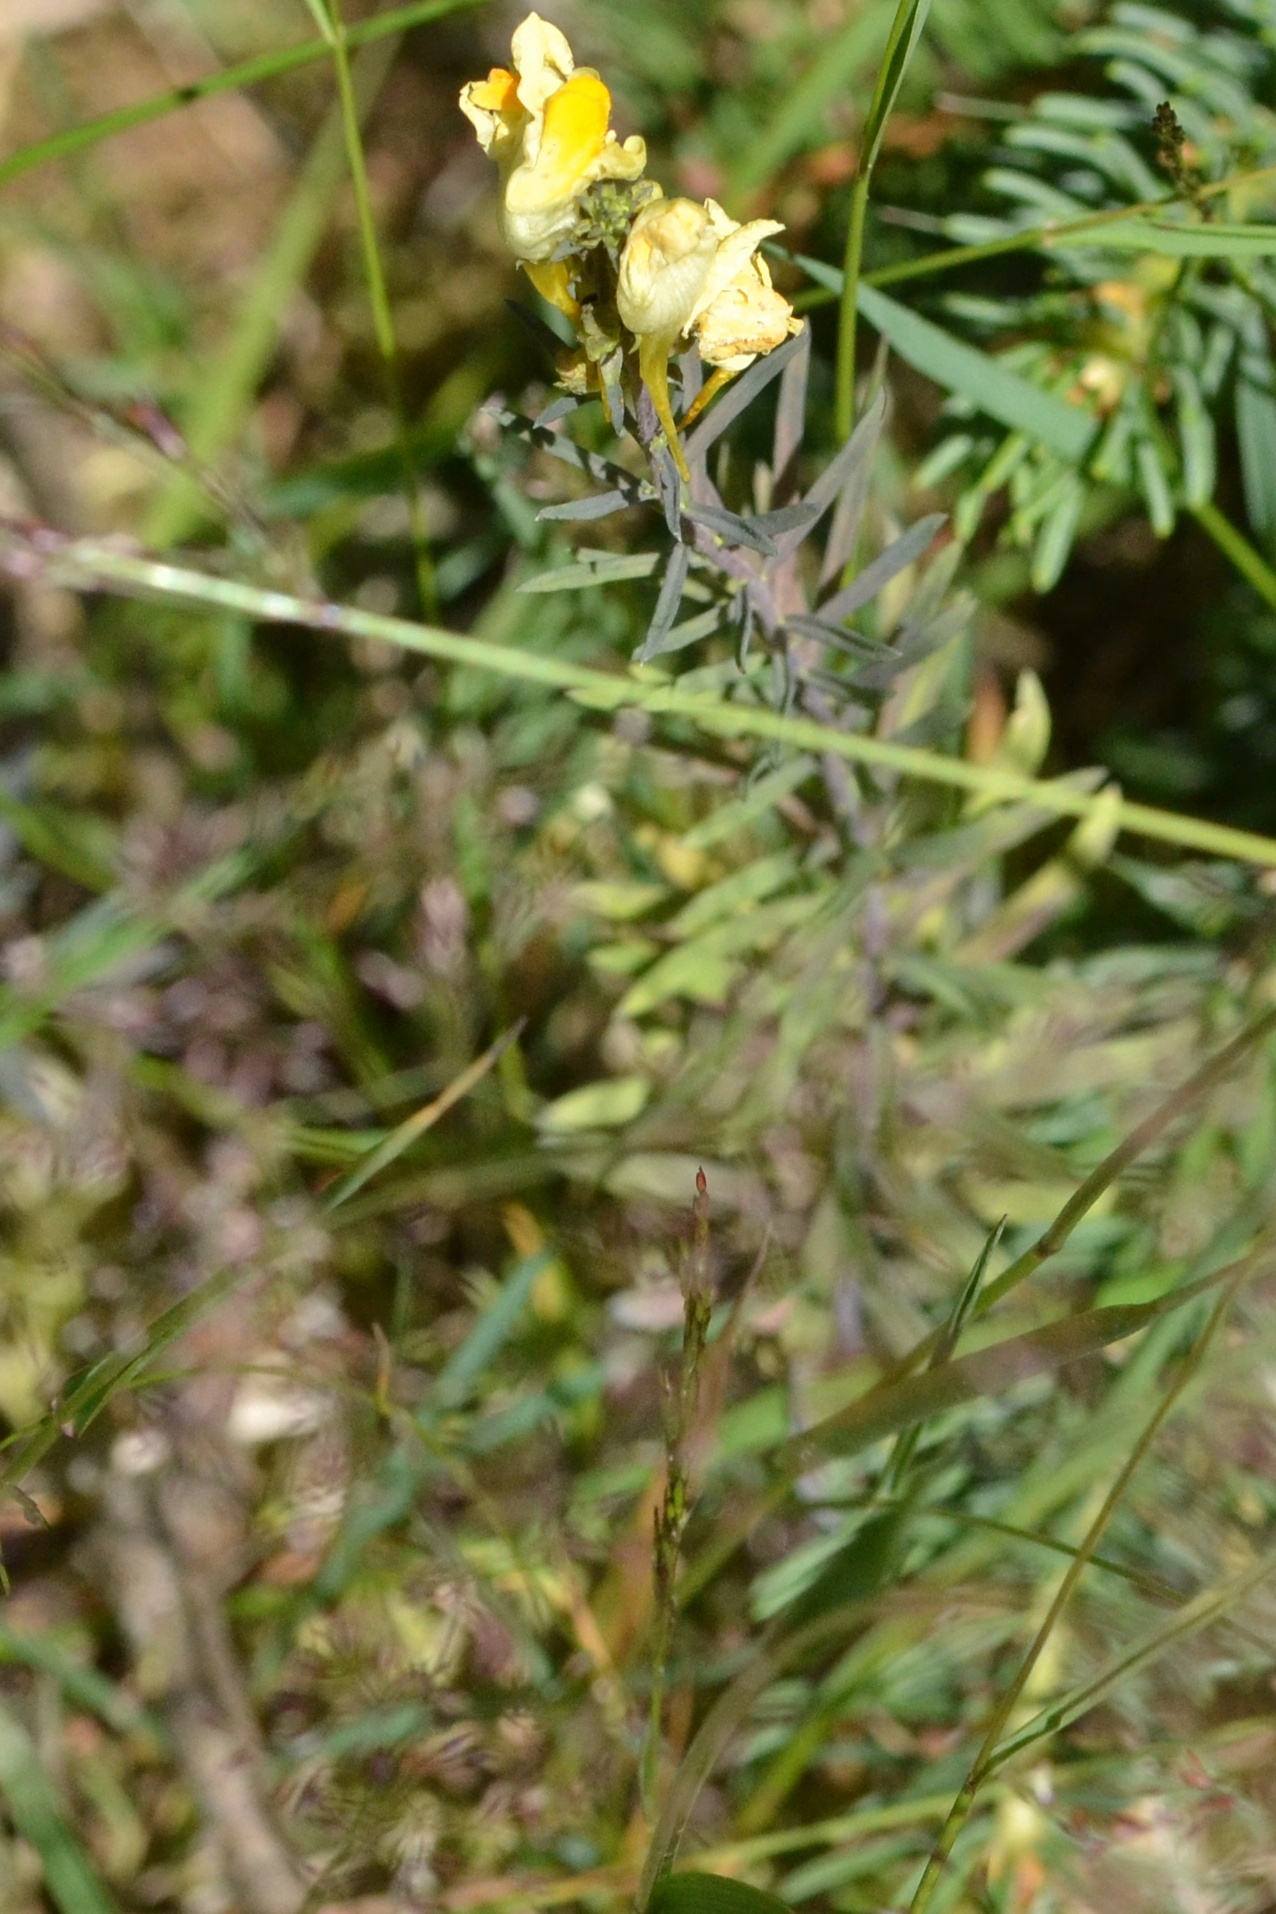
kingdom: Plantae
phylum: Tracheophyta
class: Magnoliopsida
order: Lamiales
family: Plantaginaceae
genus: Linaria
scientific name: Linaria vulgaris
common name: Butter and eggs
